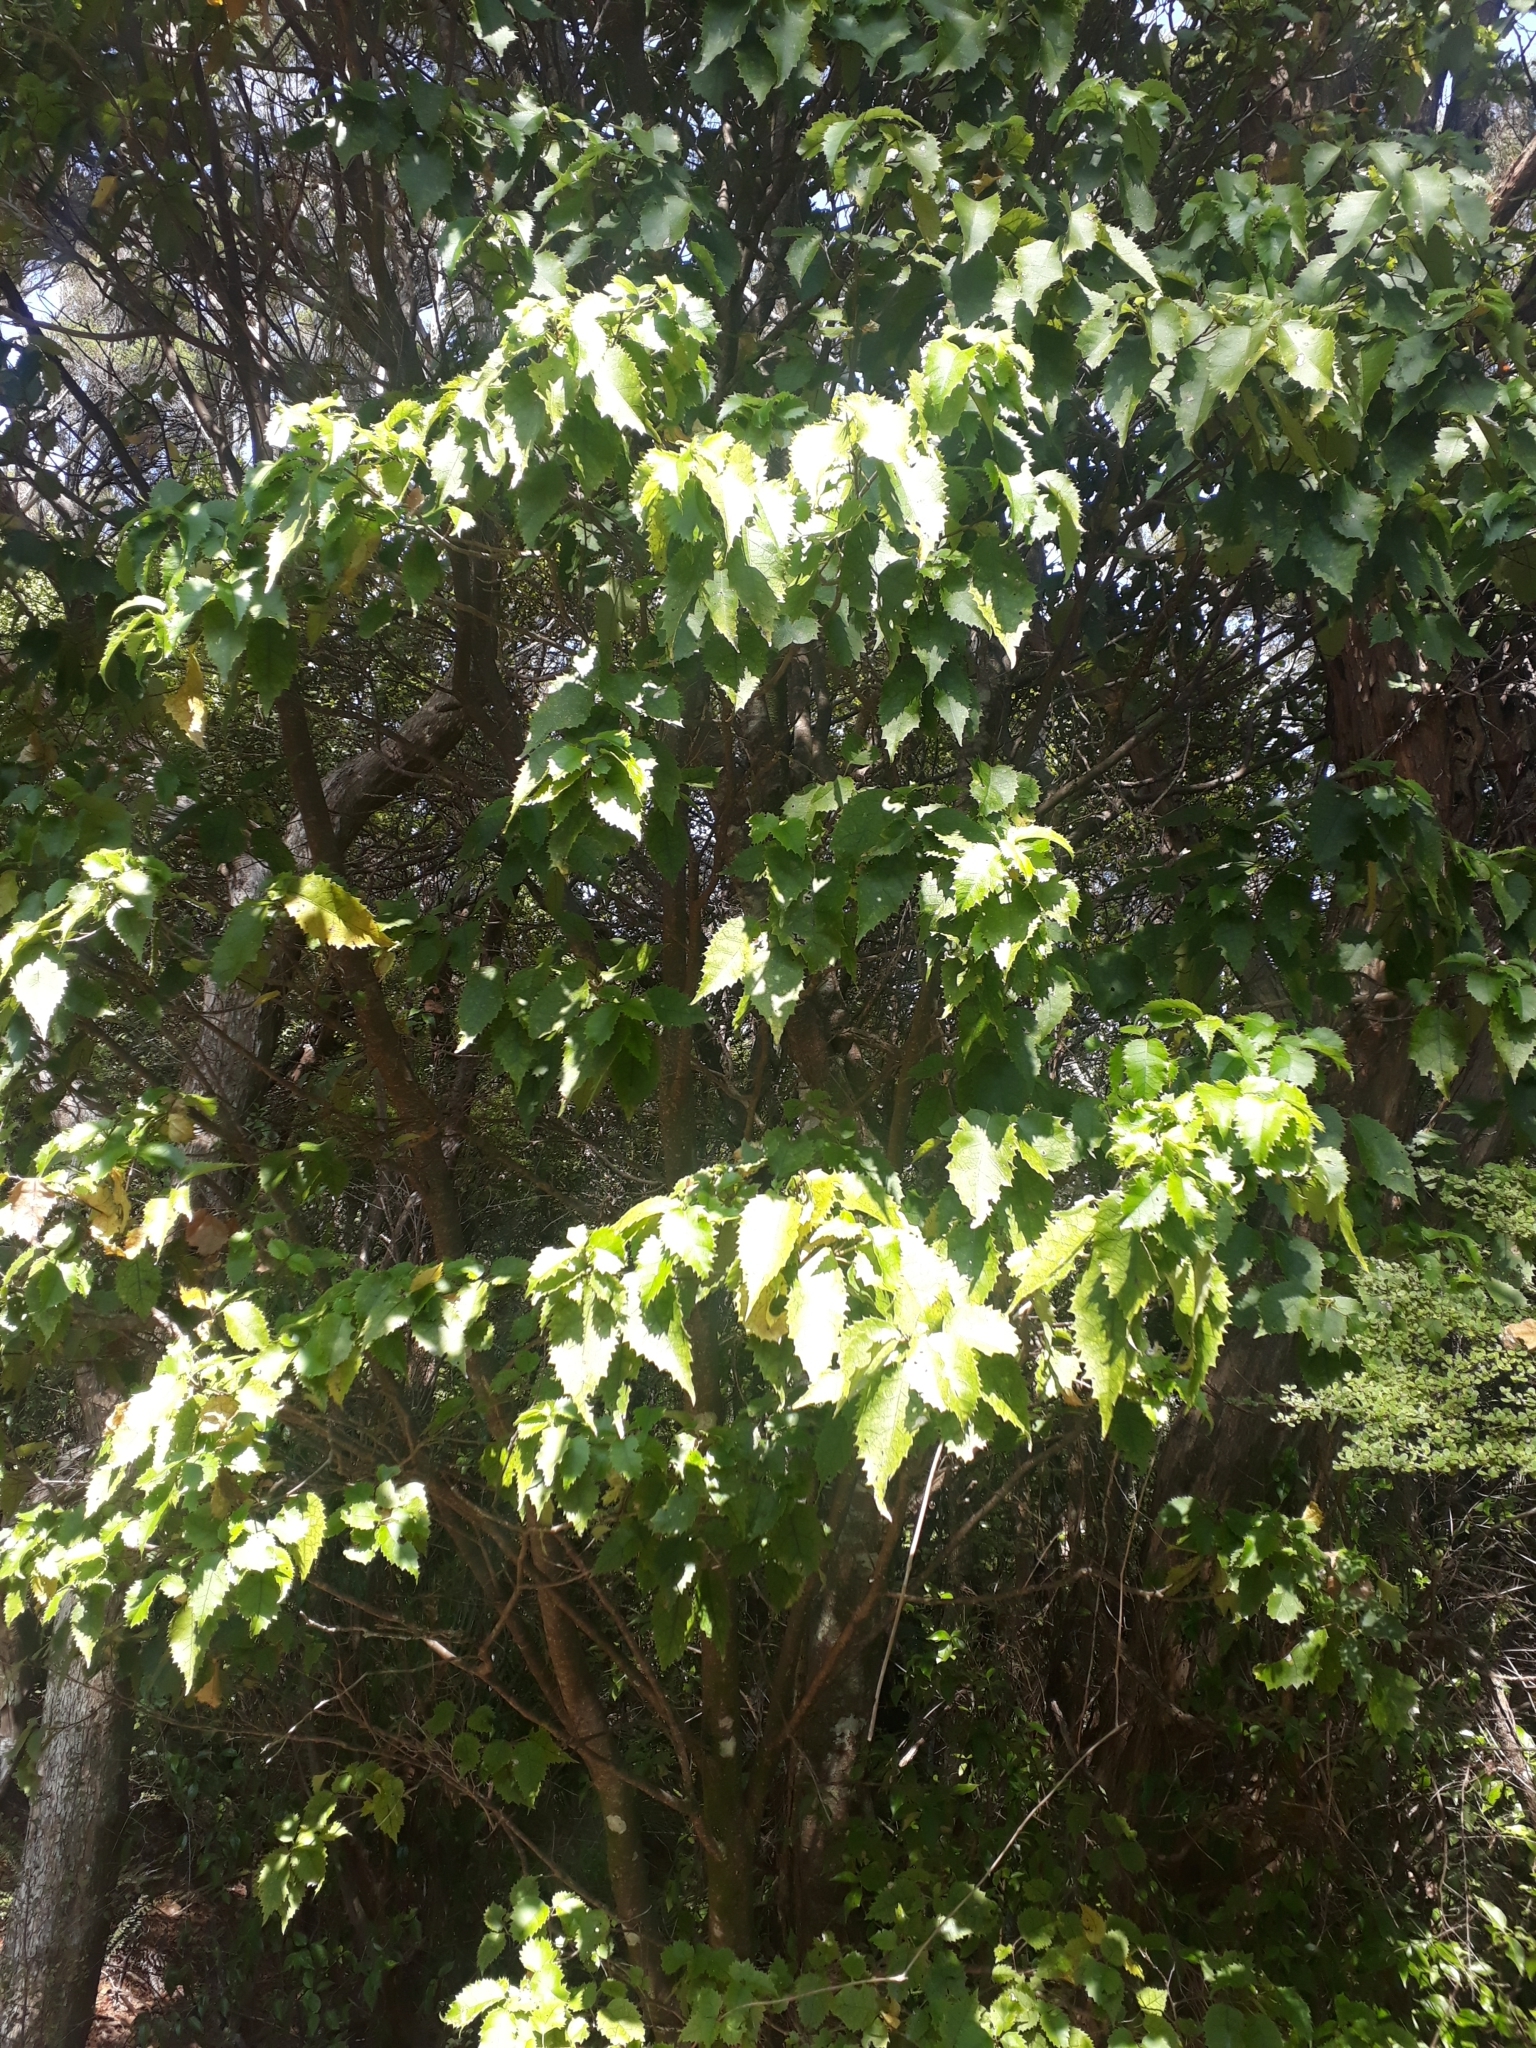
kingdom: Plantae
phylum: Tracheophyta
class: Magnoliopsida
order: Malvales
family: Malvaceae
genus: Hoheria
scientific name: Hoheria populnea
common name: Lacebark
